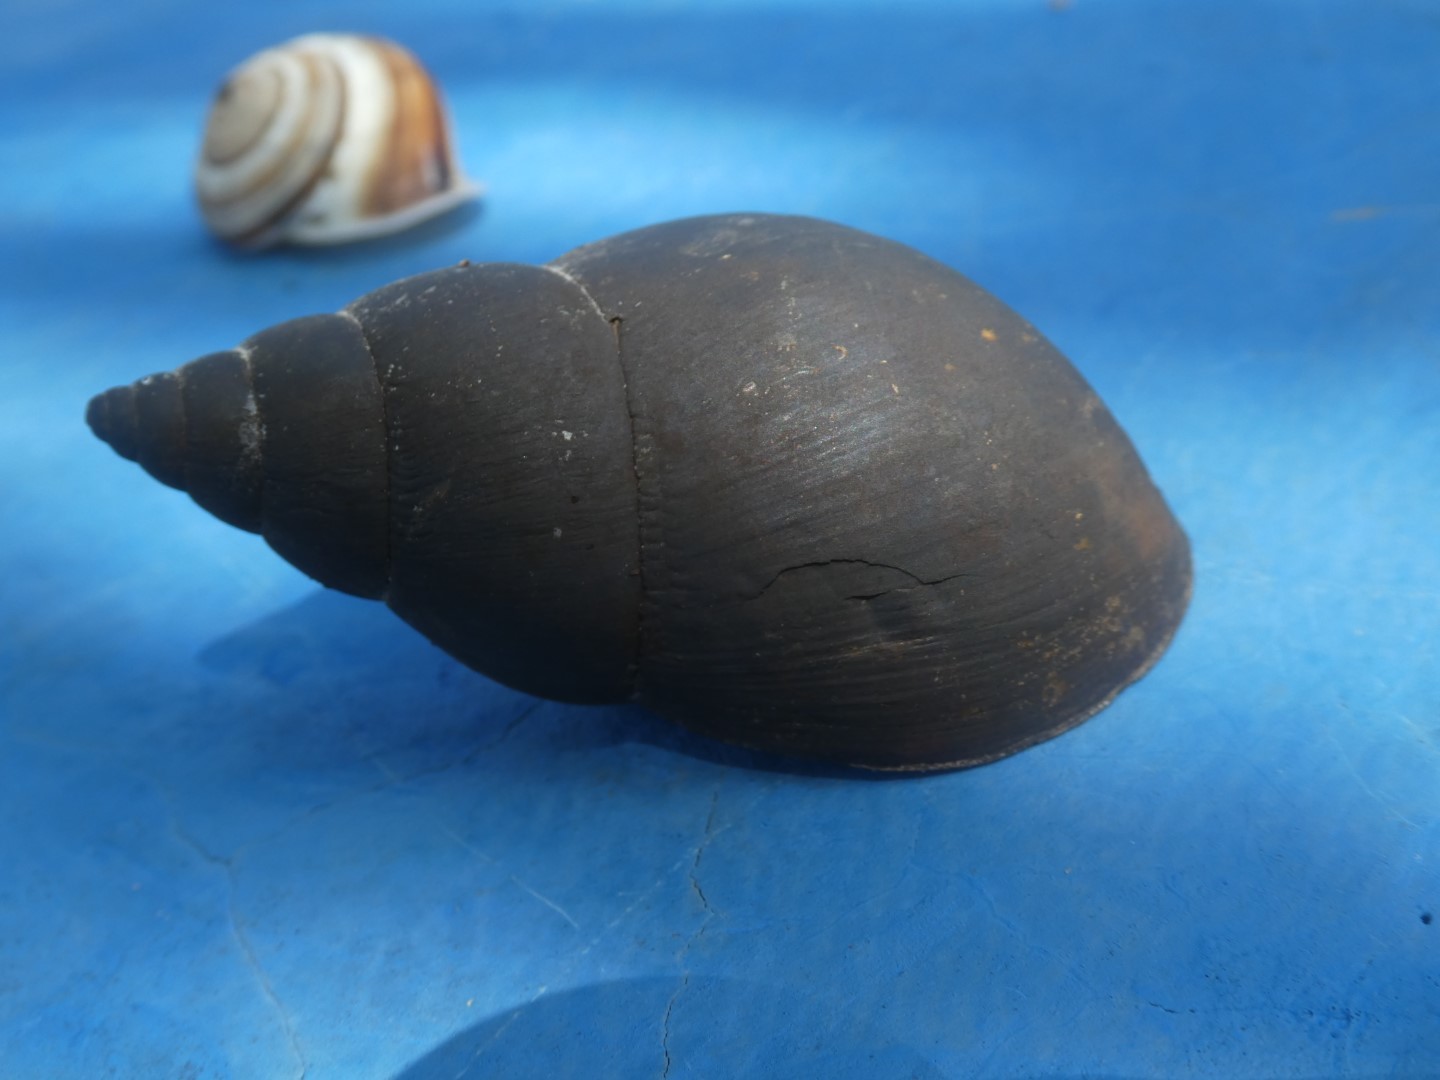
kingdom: Animalia
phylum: Mollusca
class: Gastropoda
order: Stylommatophora
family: Achatinidae
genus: Lissachatina
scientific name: Lissachatina fulica
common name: Giant african snail
